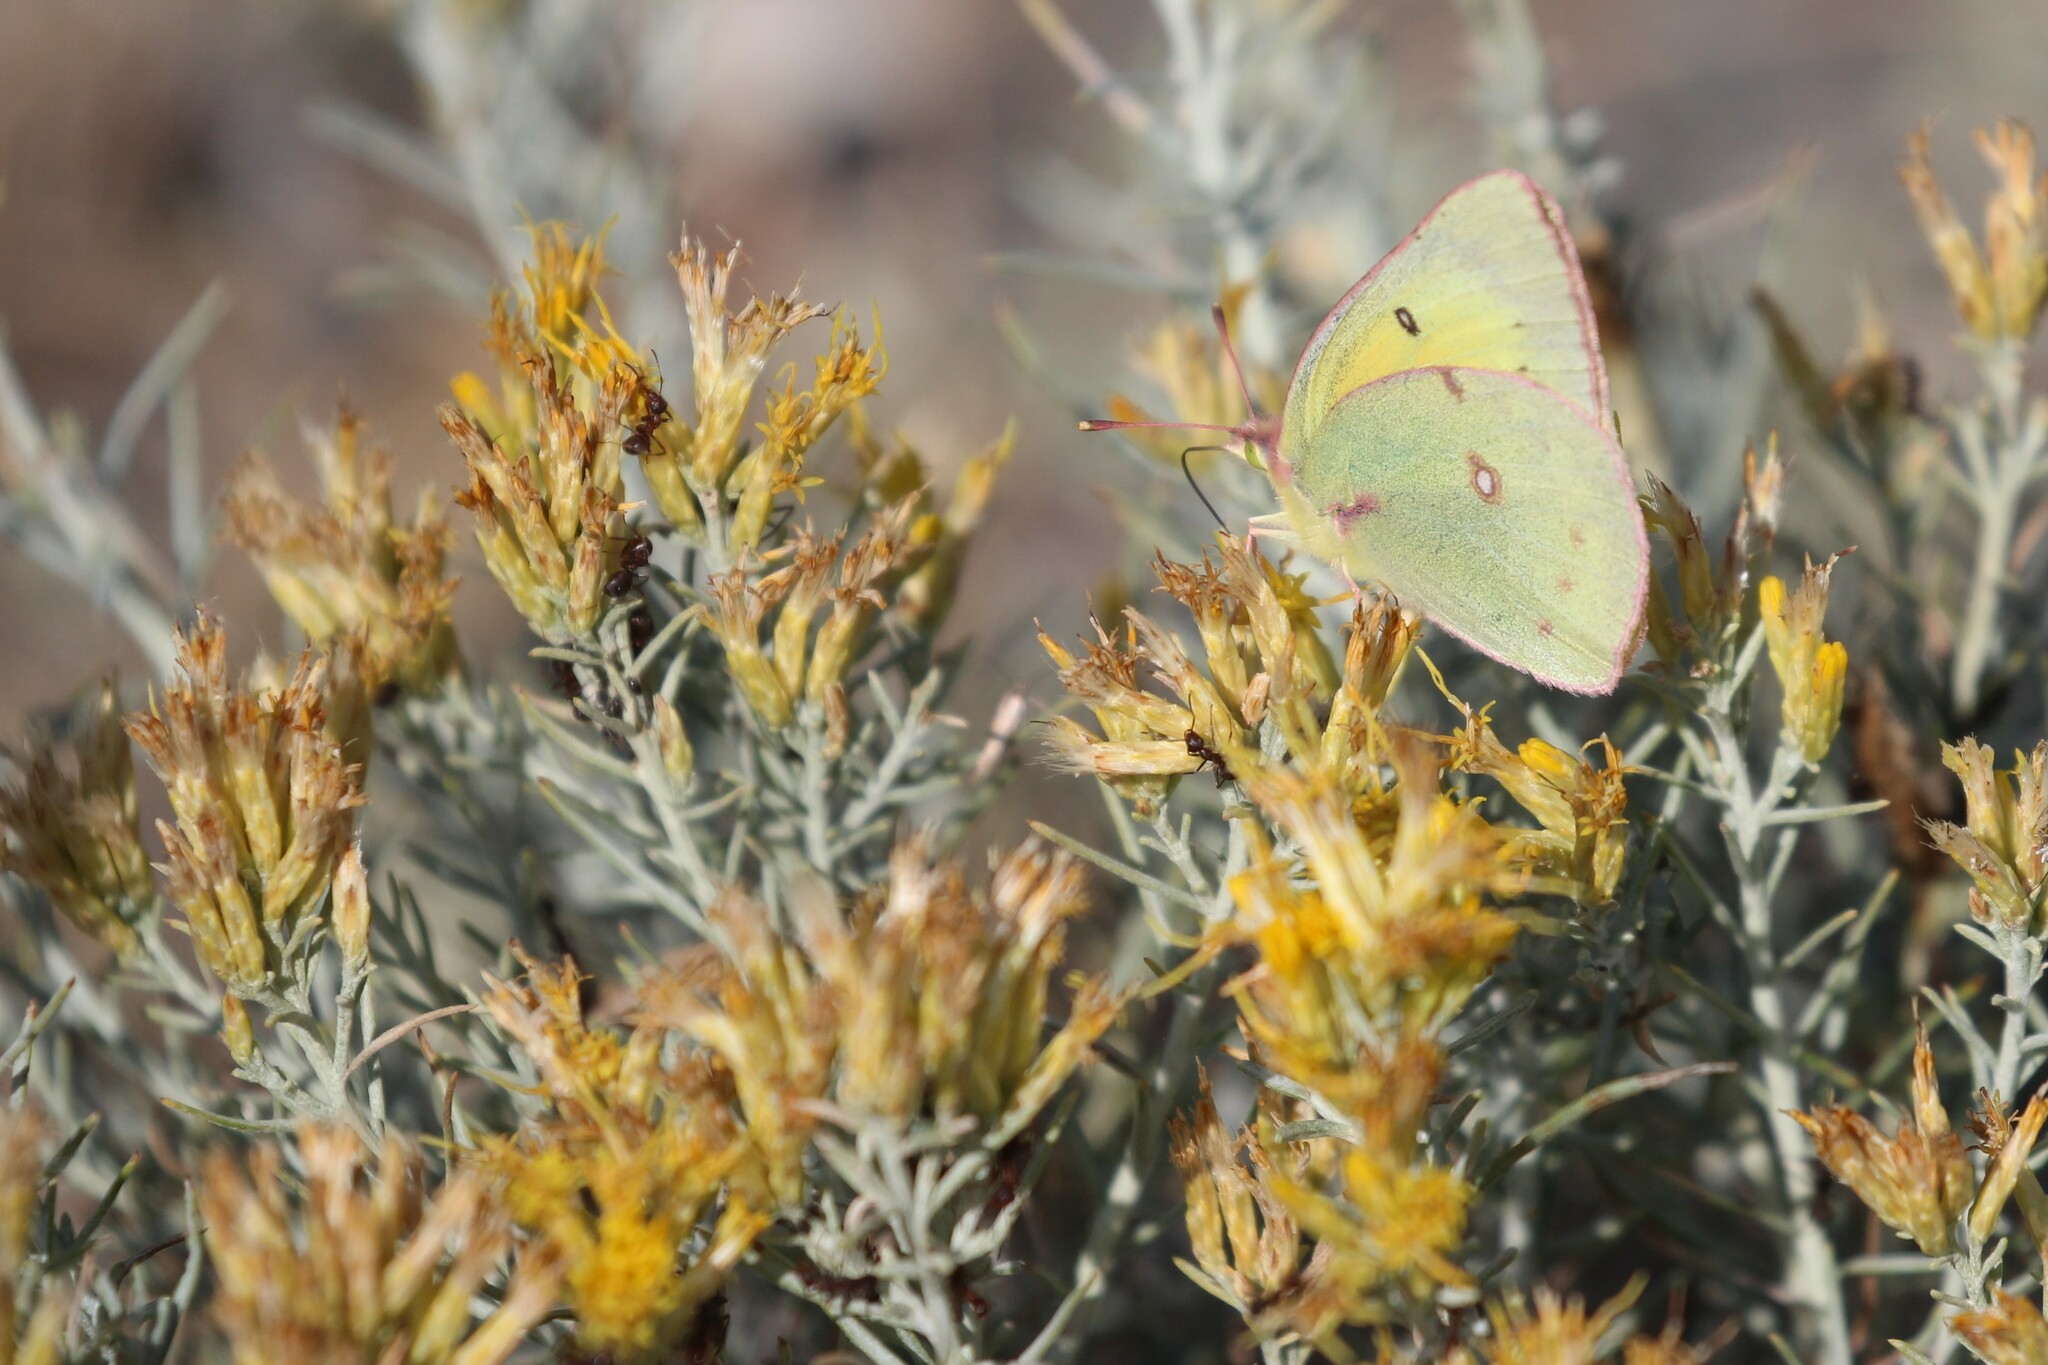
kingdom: Animalia
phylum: Arthropoda
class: Insecta
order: Lepidoptera
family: Pieridae
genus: Colias
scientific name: Colias philodice
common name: Clouded sulphur
